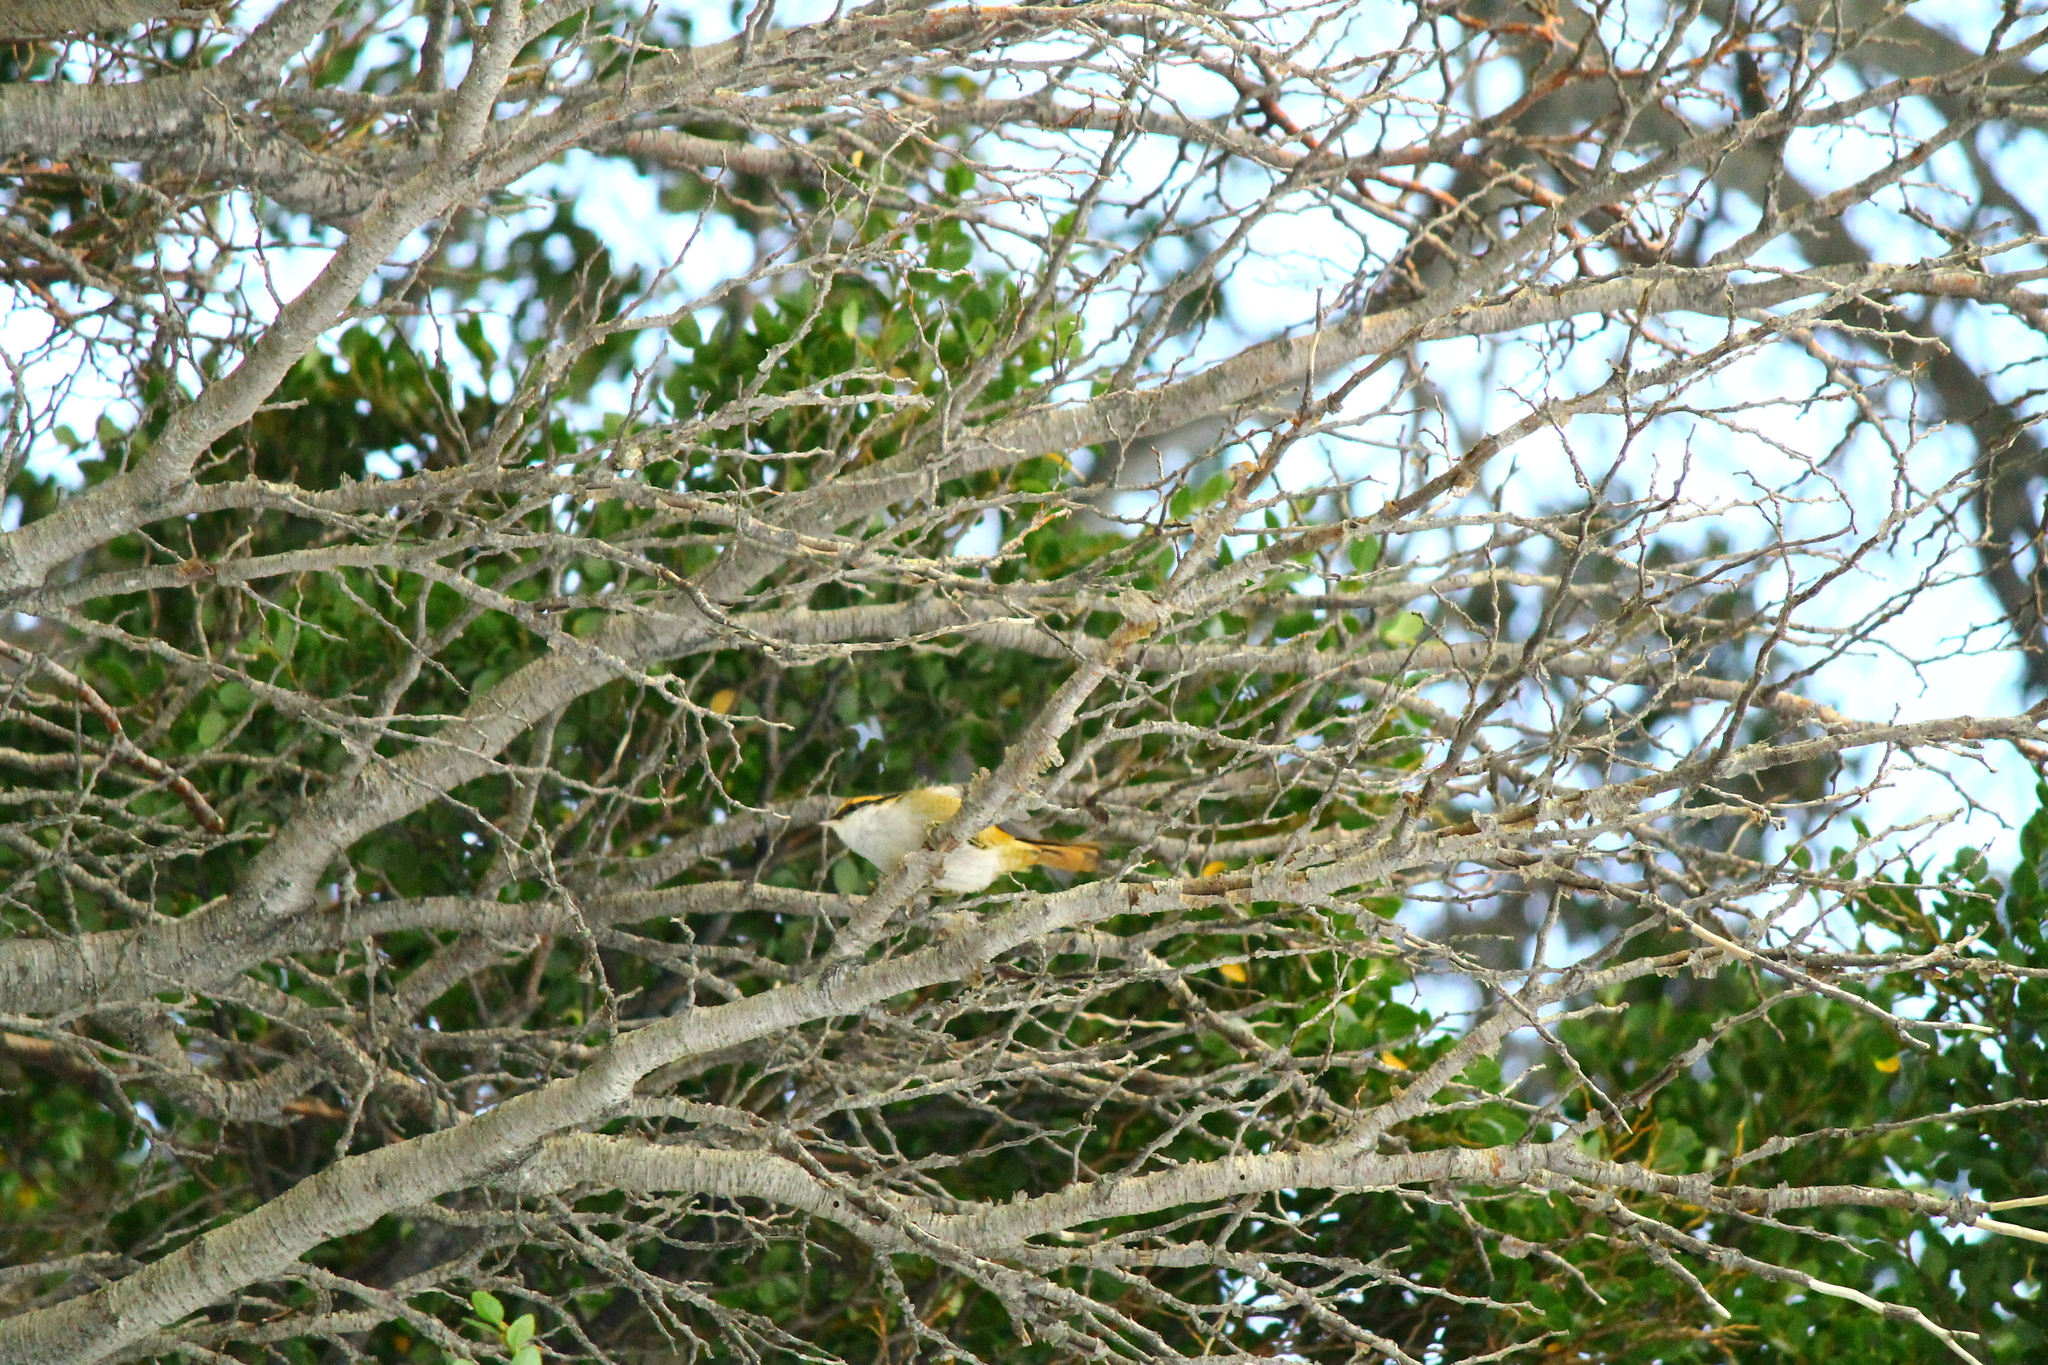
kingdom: Animalia
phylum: Chordata
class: Aves
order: Passeriformes
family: Furnariidae
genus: Aphrastura
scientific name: Aphrastura spinicauda
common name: Thorn-tailed rayadito
